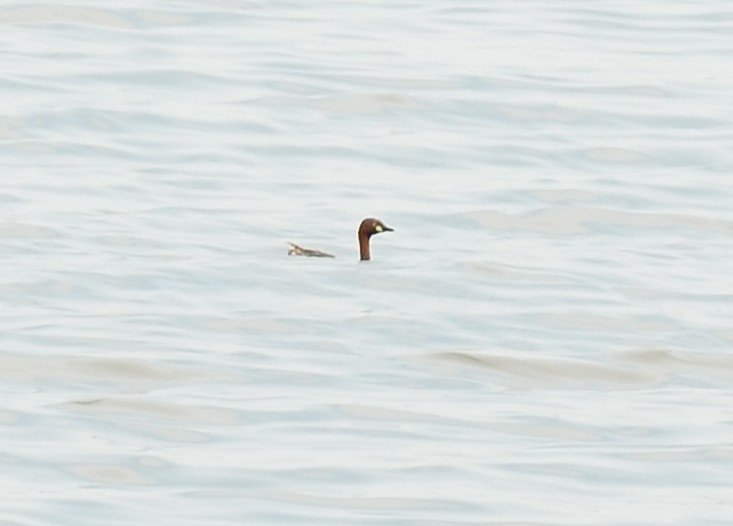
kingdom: Animalia
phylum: Chordata
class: Aves
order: Podicipediformes
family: Podicipedidae
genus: Tachybaptus
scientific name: Tachybaptus ruficollis
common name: Little grebe
